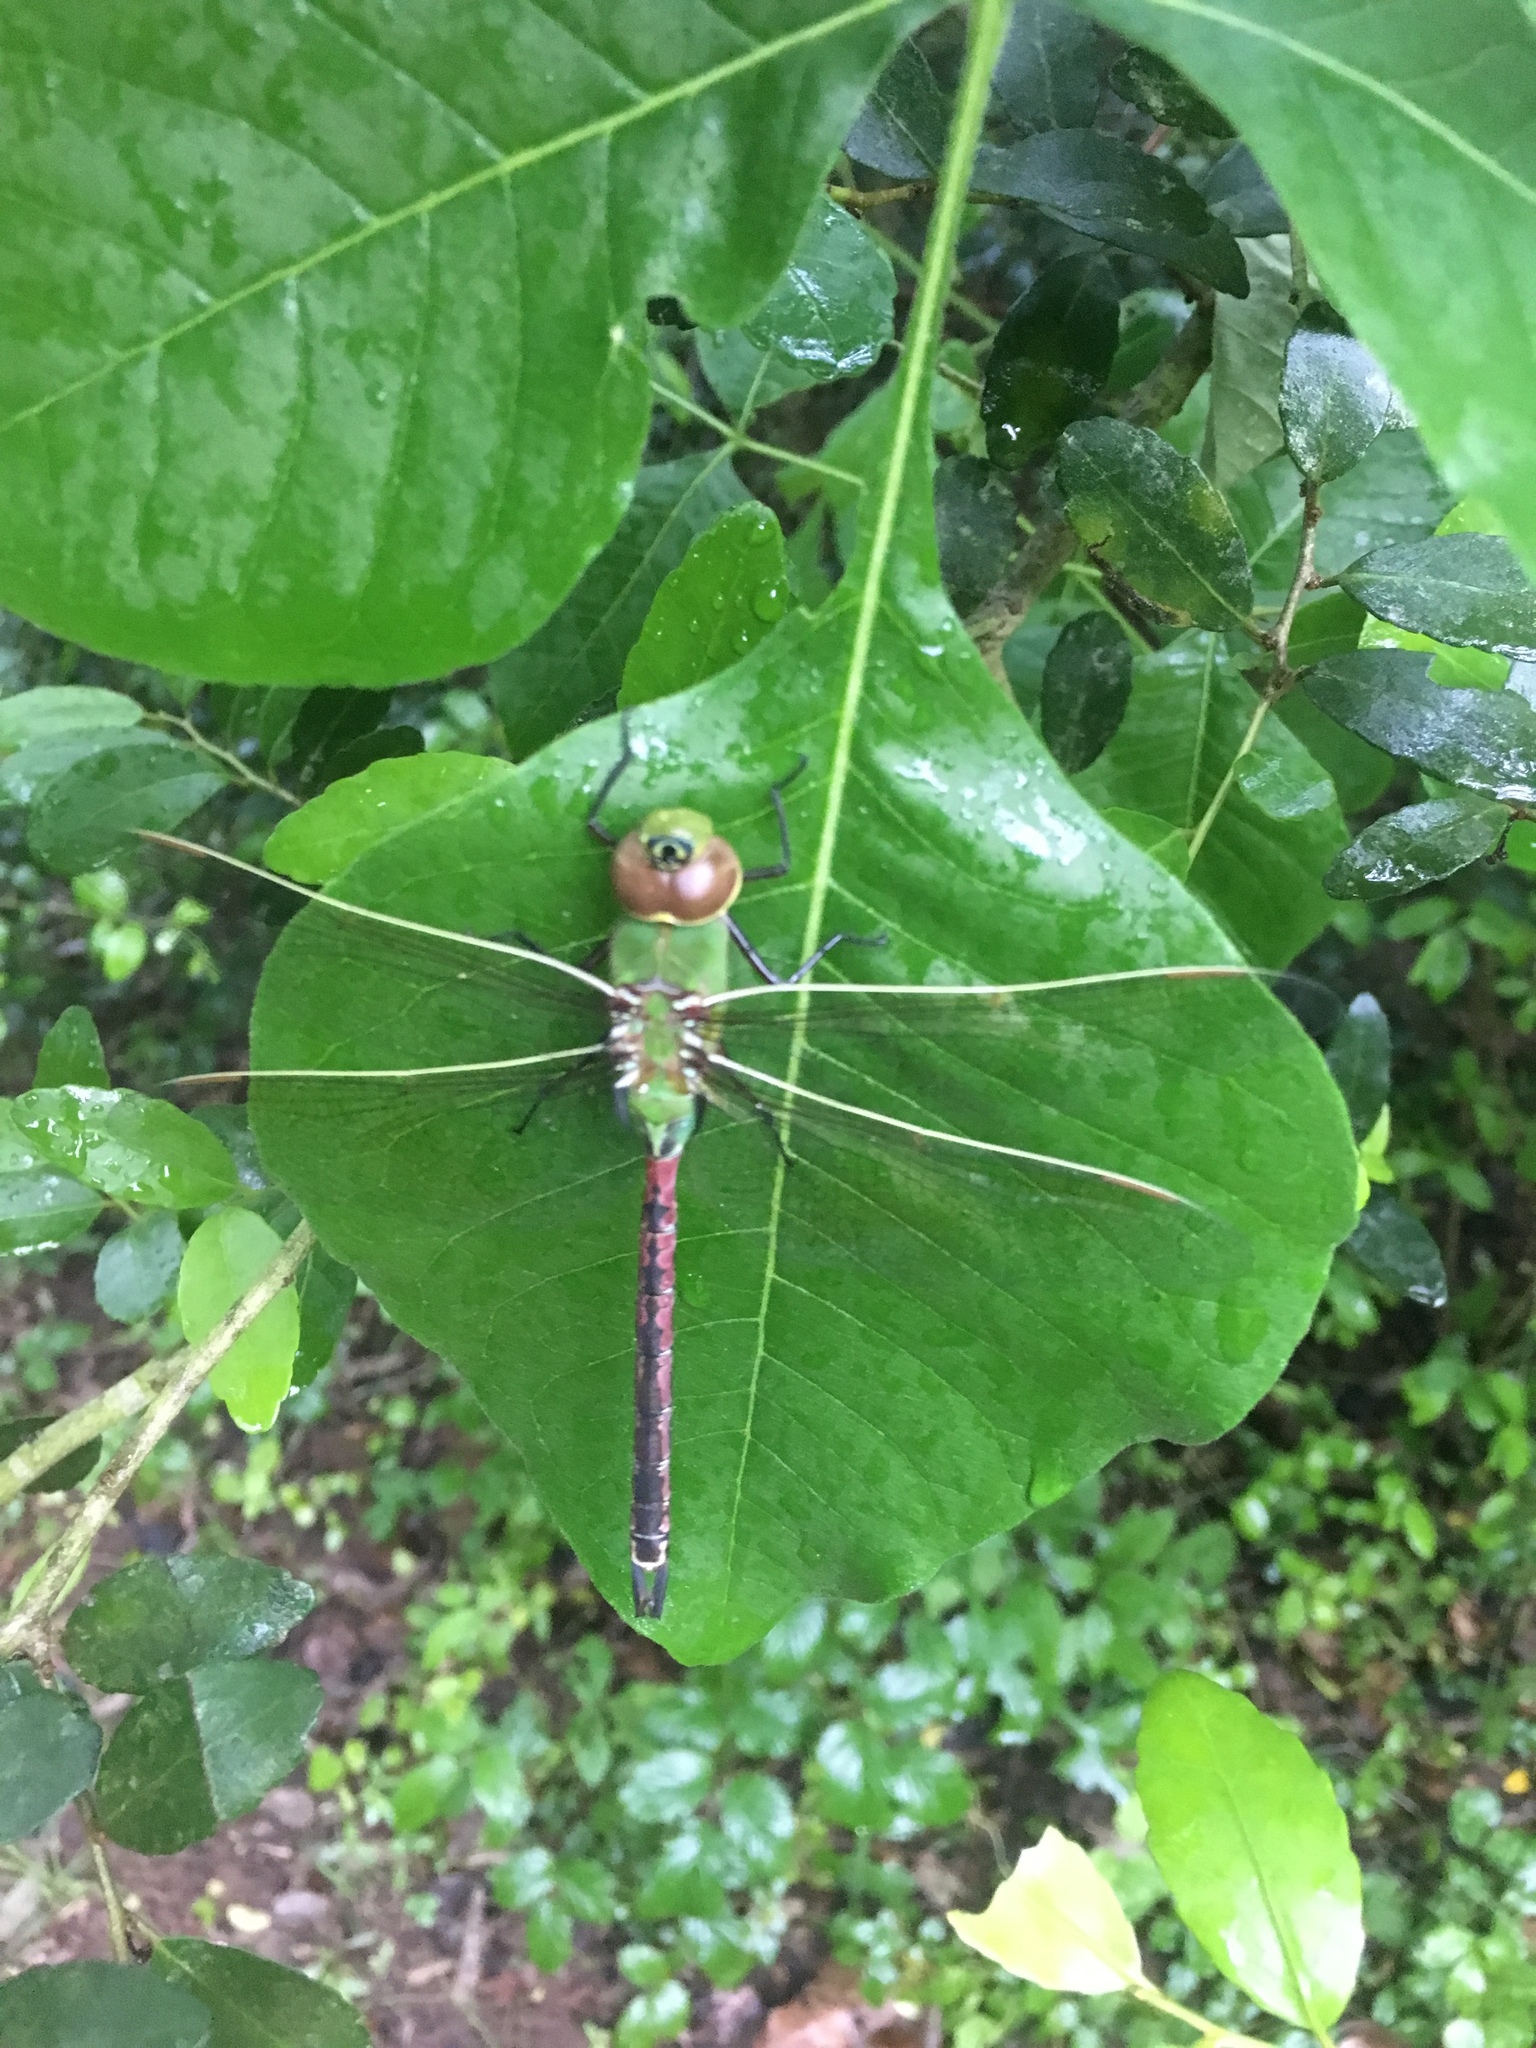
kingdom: Animalia
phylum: Arthropoda
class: Insecta
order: Odonata
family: Aeshnidae
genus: Anax
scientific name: Anax junius
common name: Common green darner
